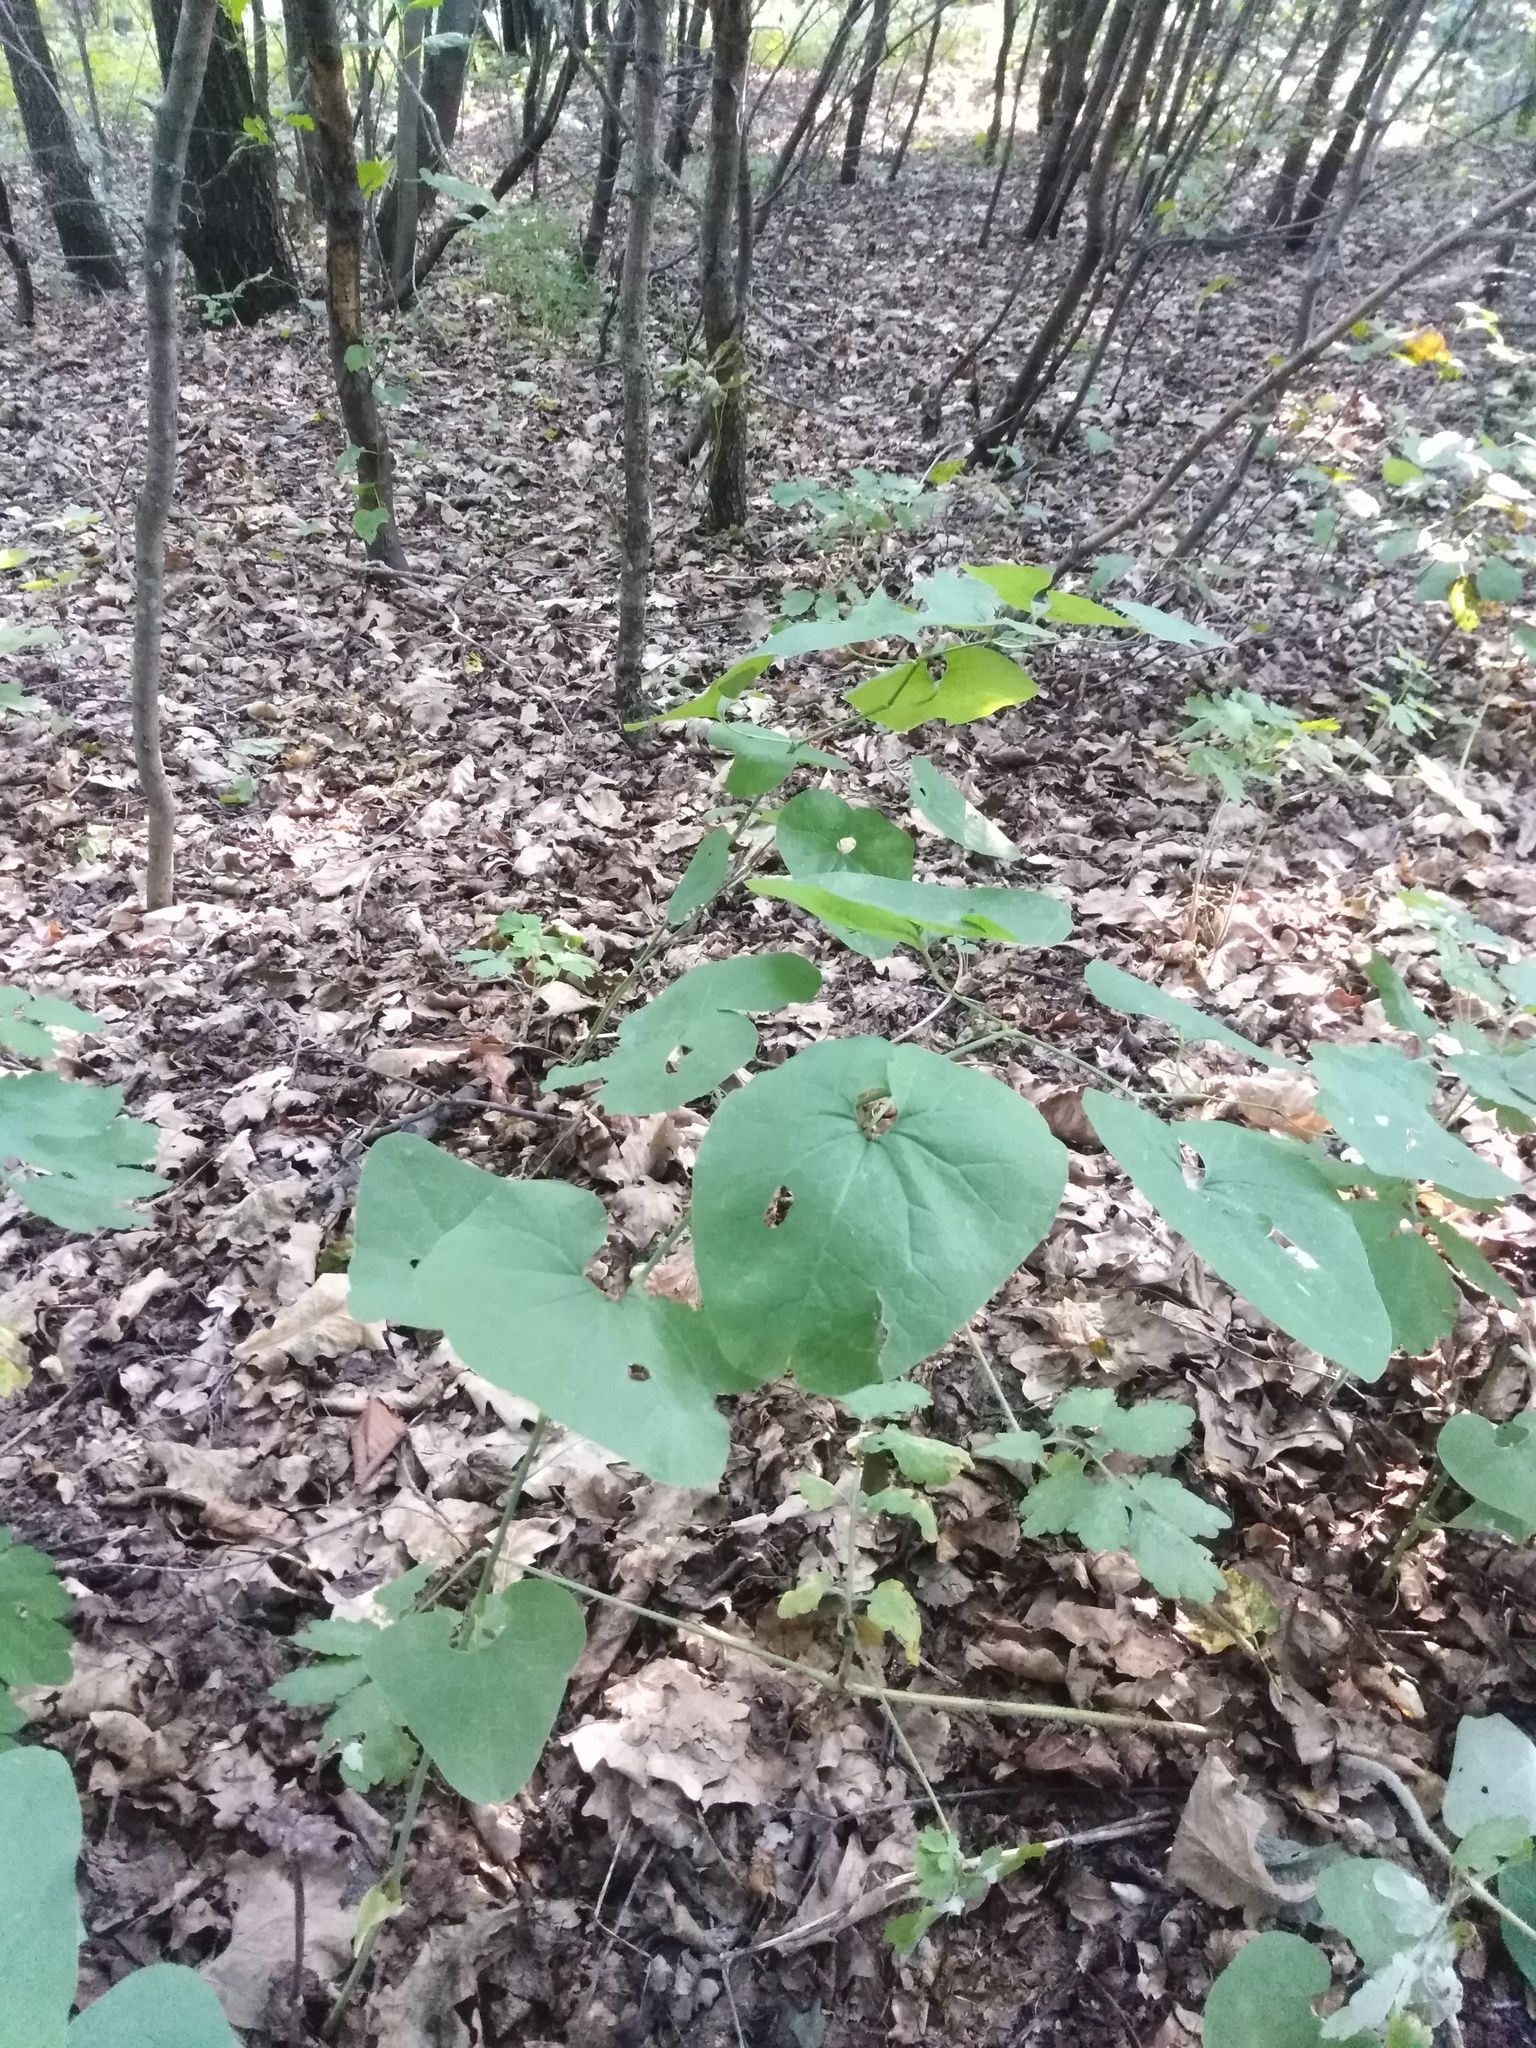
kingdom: Plantae
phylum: Tracheophyta
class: Magnoliopsida
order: Piperales
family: Aristolochiaceae
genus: Aristolochia
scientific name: Aristolochia clematitis
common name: Birthwort
